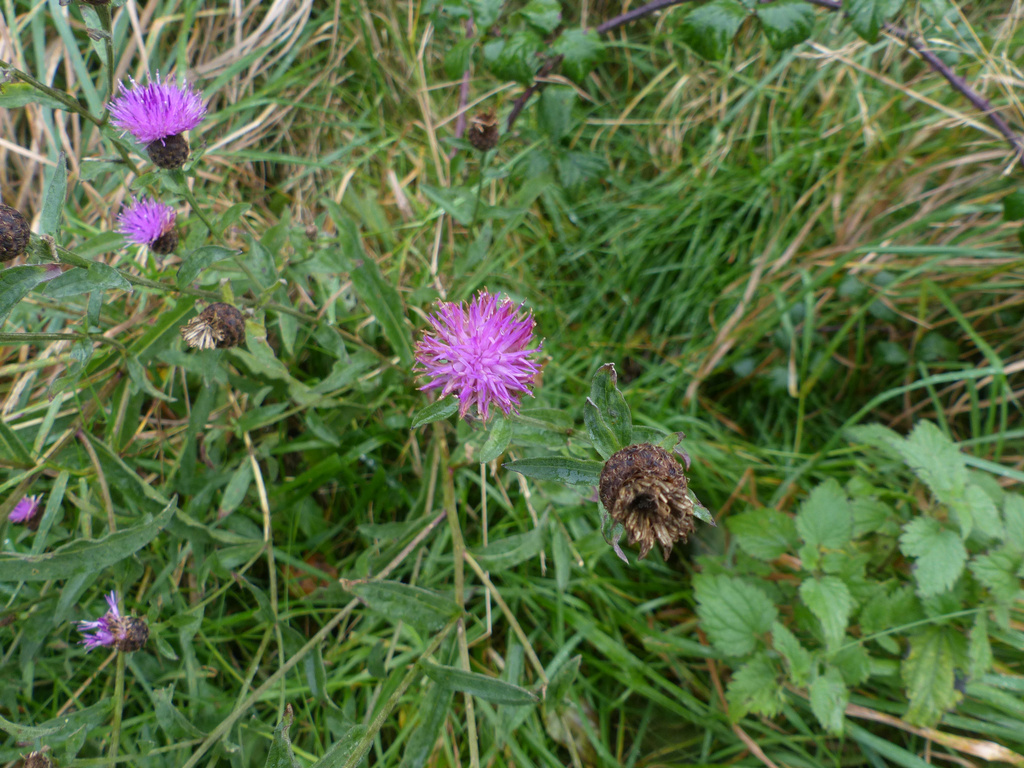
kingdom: Plantae
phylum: Tracheophyta
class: Magnoliopsida
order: Asterales
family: Asteraceae
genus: Centaurea
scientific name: Centaurea nigra
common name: Lesser knapweed
